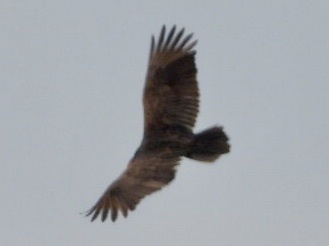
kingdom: Animalia
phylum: Chordata
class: Aves
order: Accipitriformes
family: Cathartidae
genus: Cathartes
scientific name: Cathartes aura
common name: Turkey vulture
